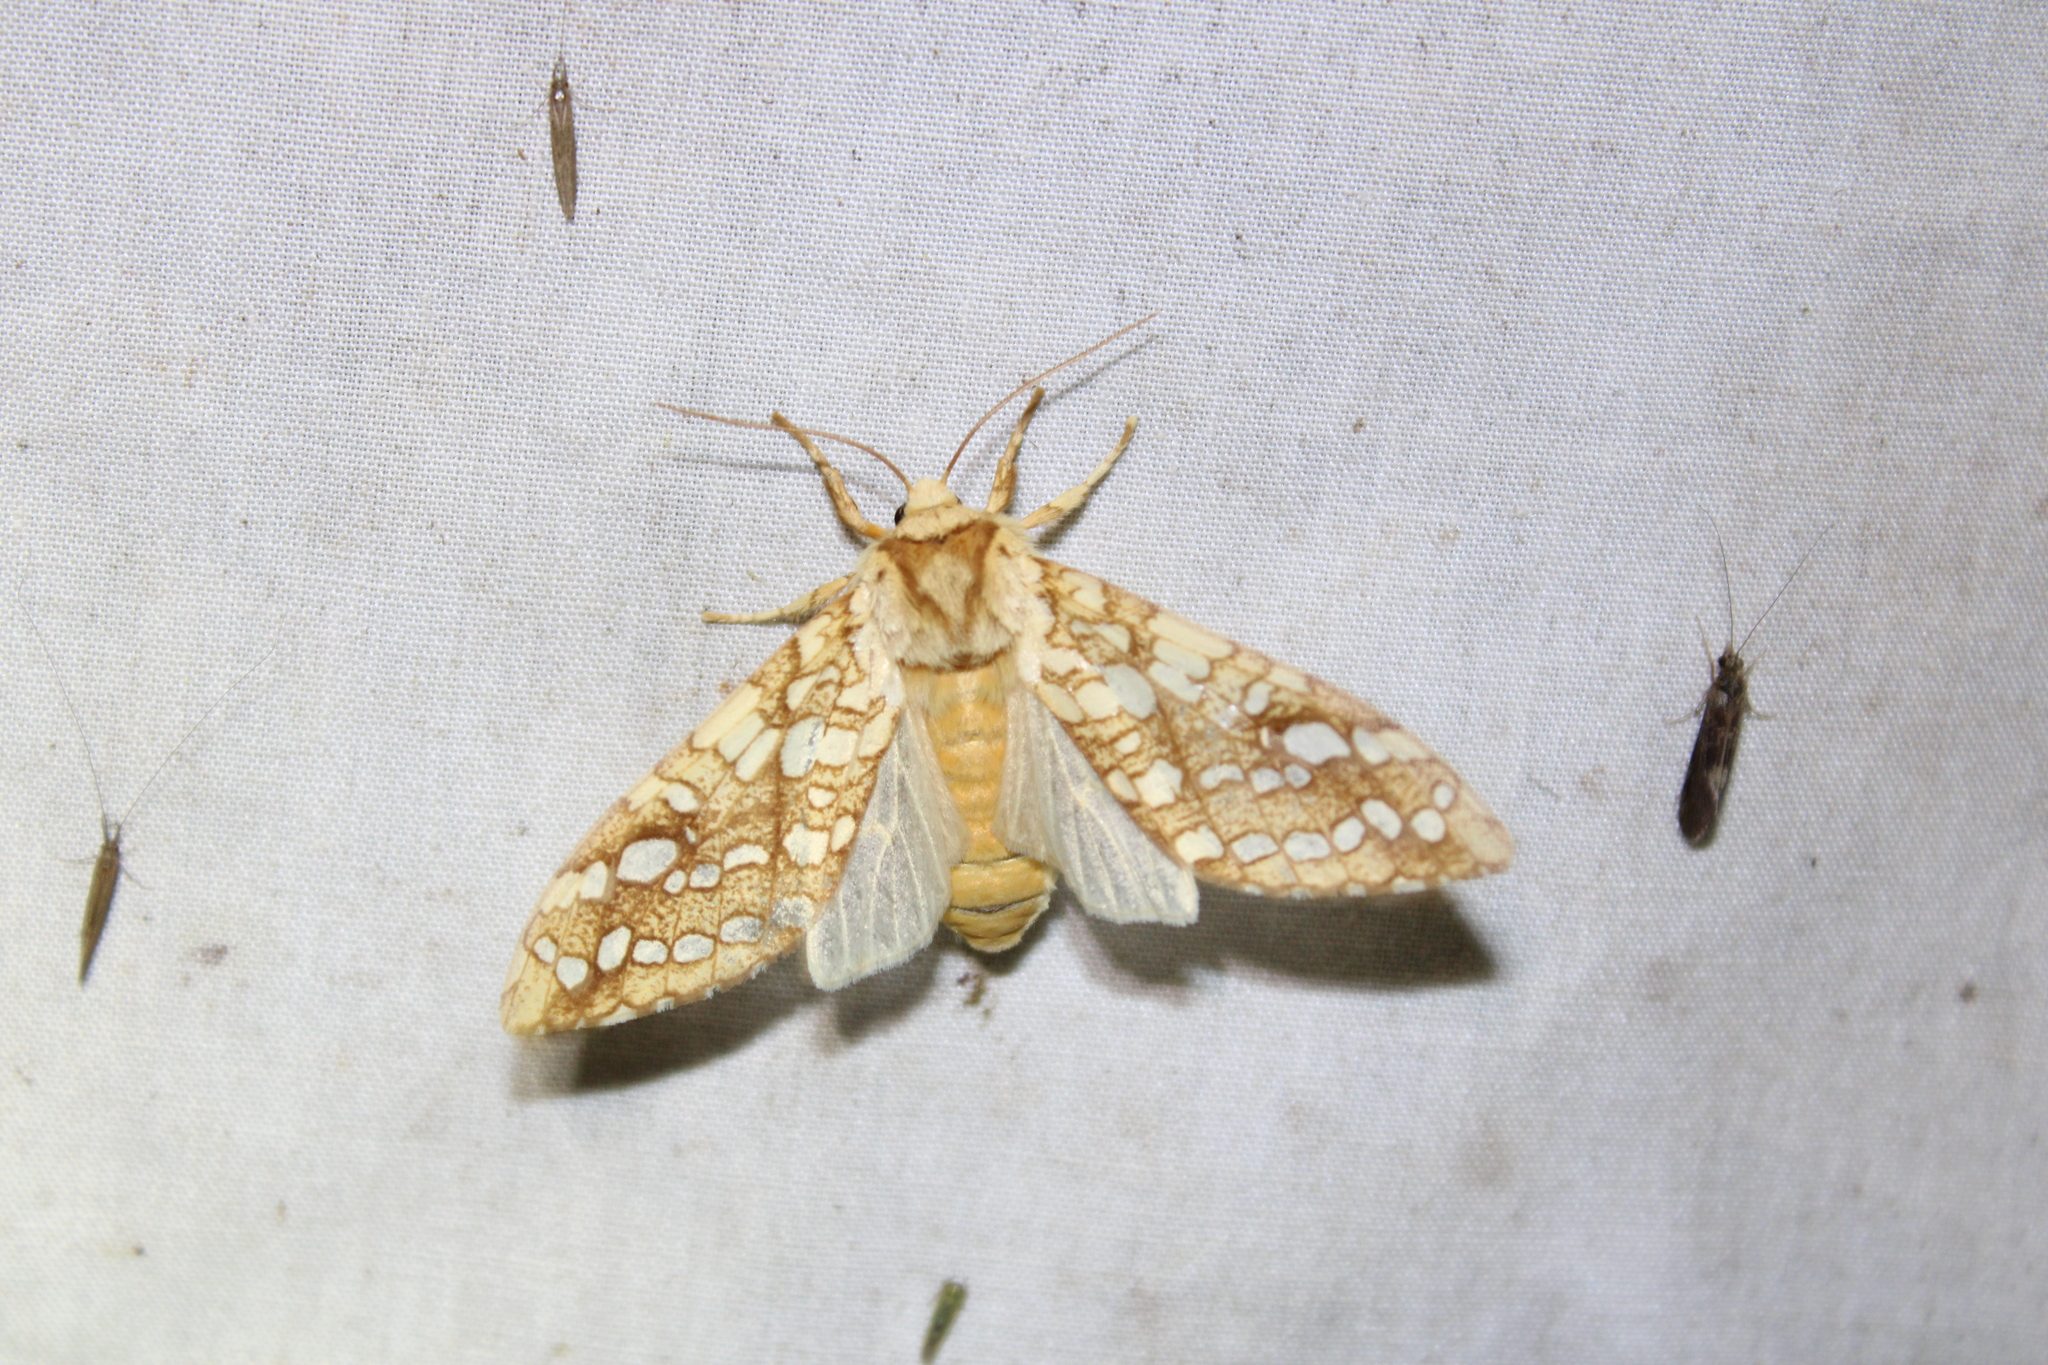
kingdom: Animalia
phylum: Arthropoda
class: Insecta
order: Lepidoptera
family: Erebidae
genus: Lophocampa
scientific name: Lophocampa caryae
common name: Hickory tussock moth
